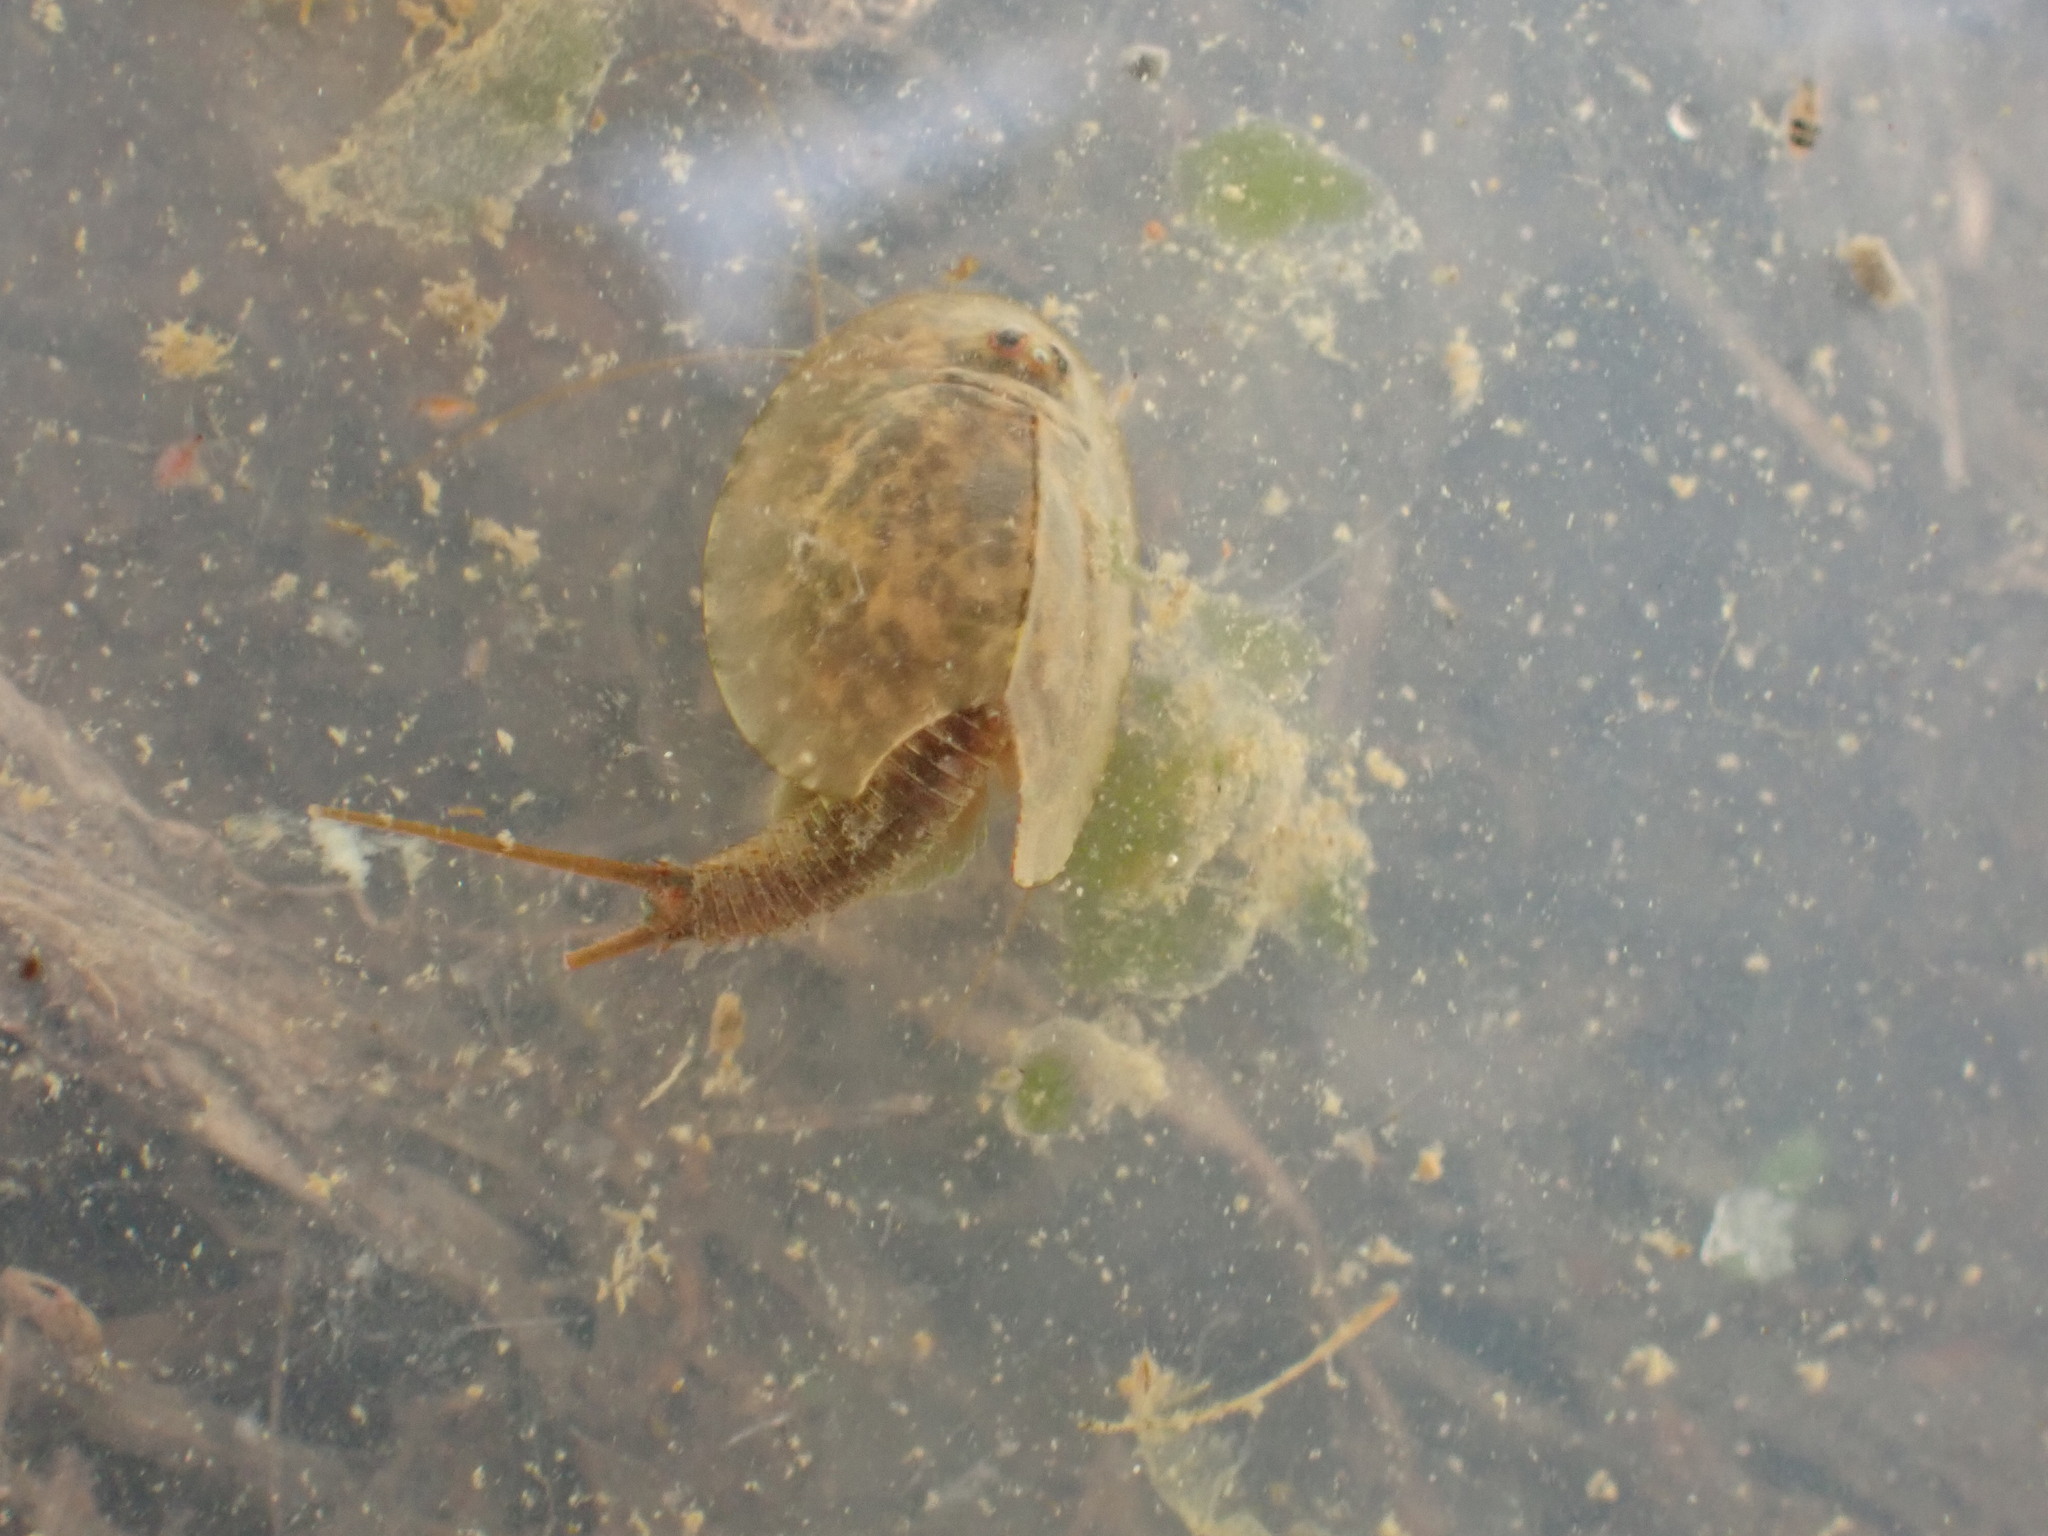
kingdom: Animalia
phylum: Arthropoda
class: Branchiopoda
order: Notostraca
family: Triopsidae
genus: Triops
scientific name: Triops cancriformis
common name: Tadpole shrimp
